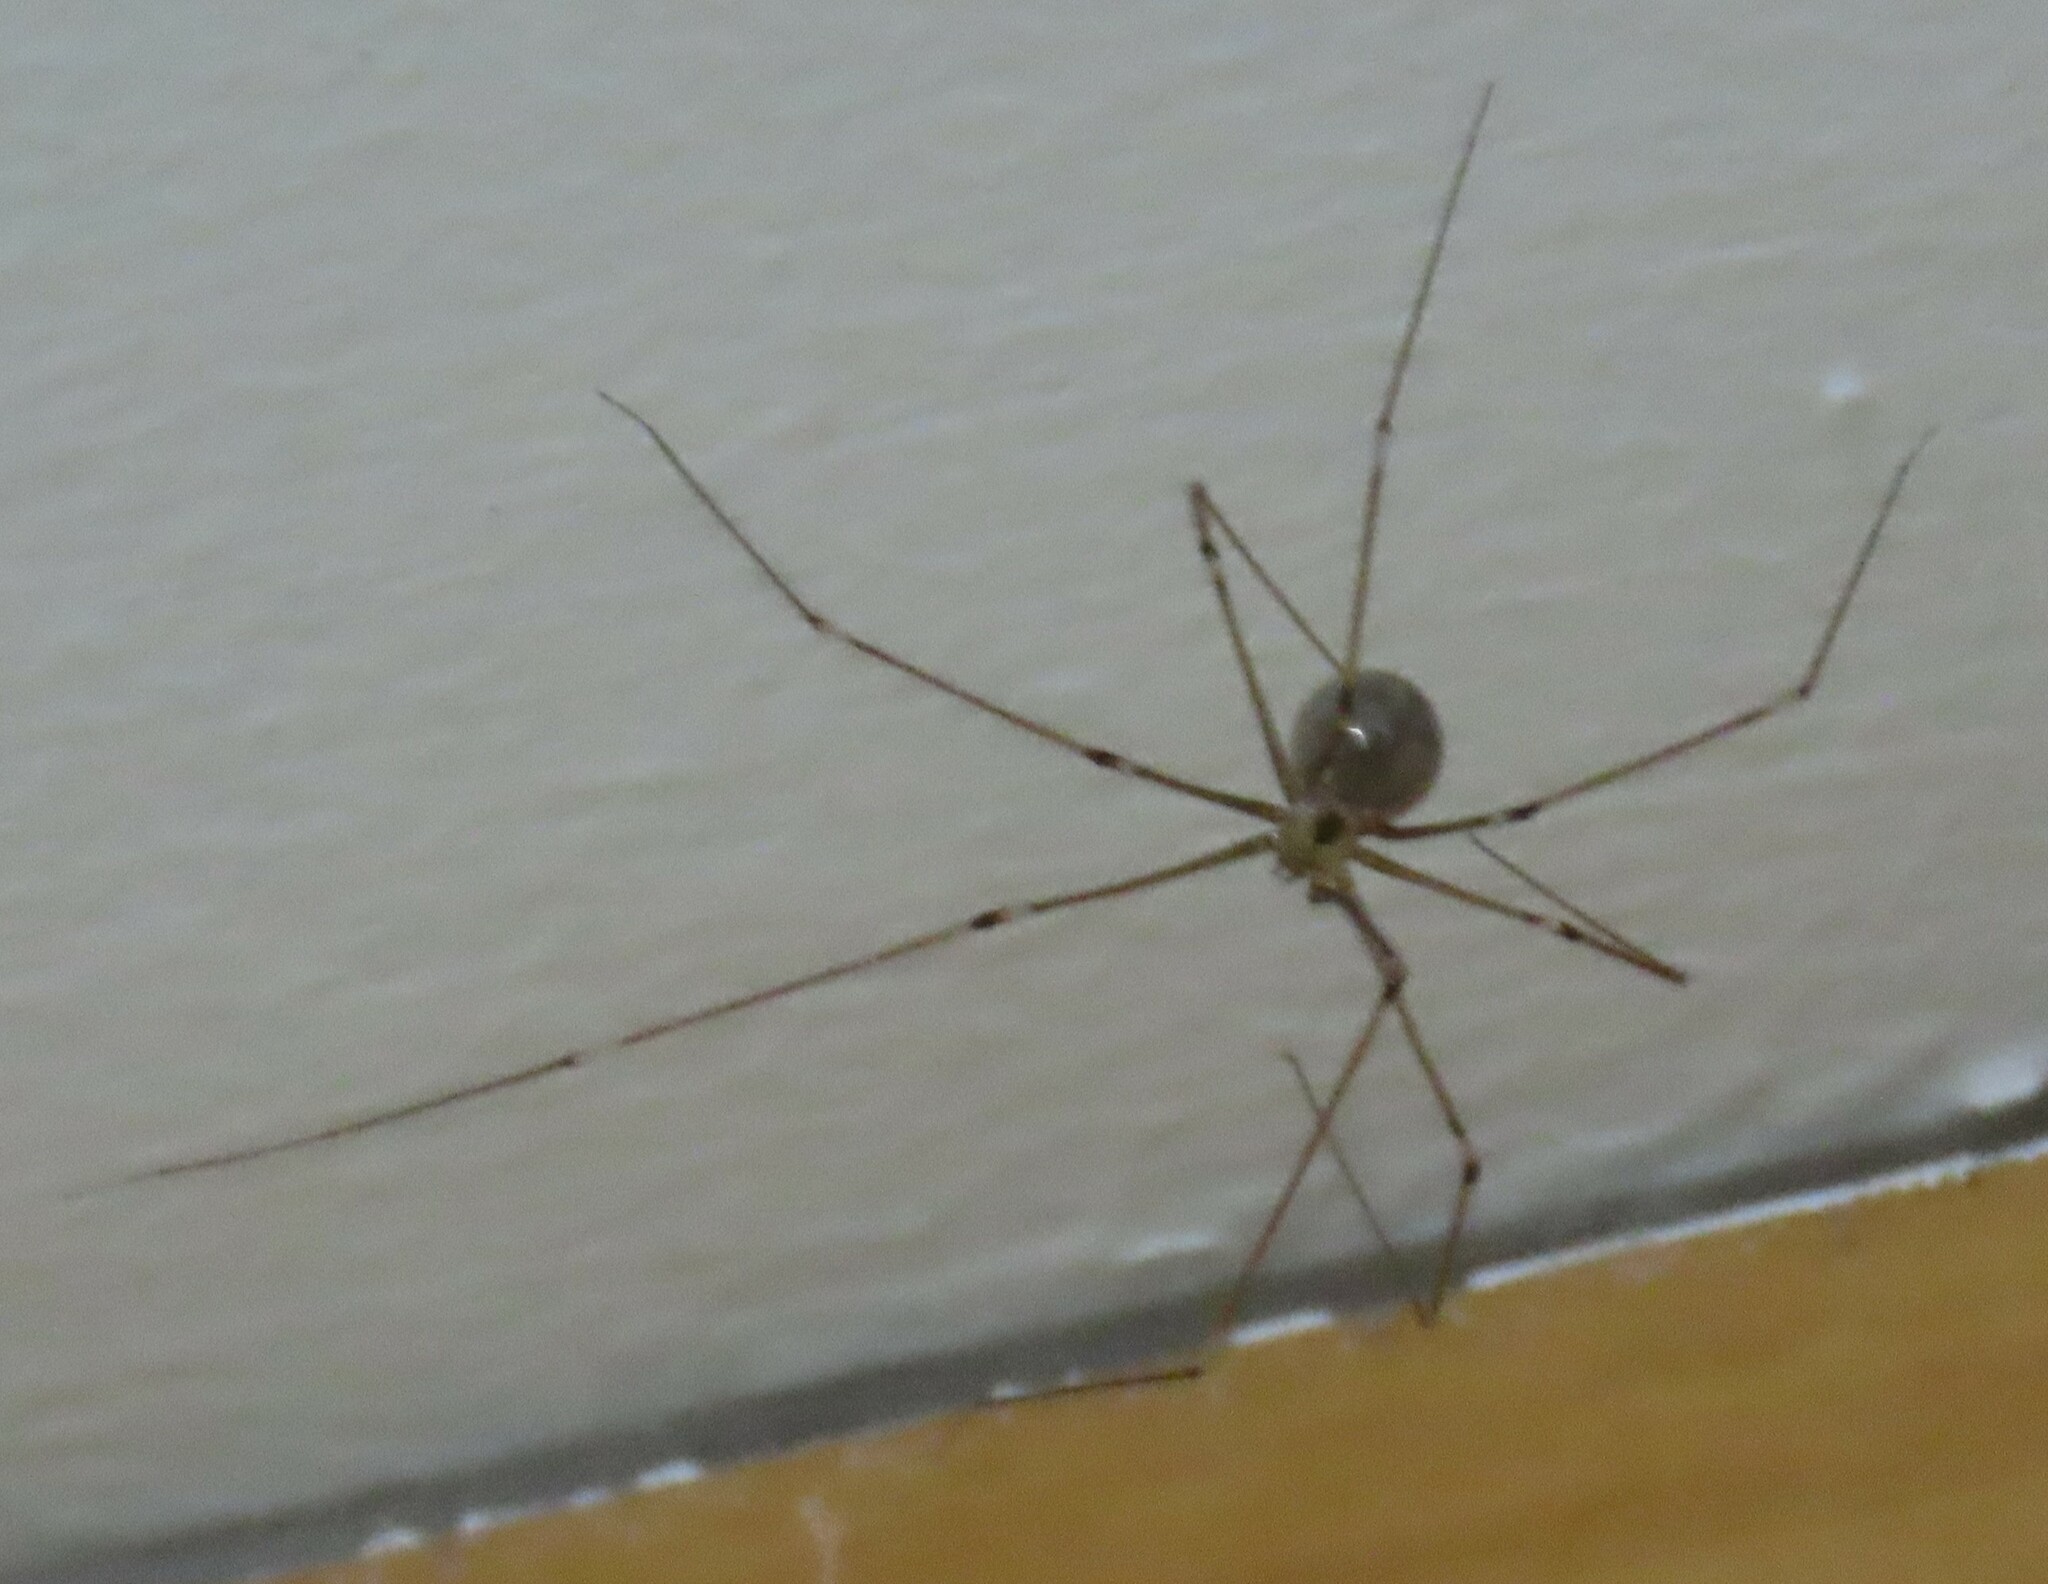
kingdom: Animalia
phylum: Arthropoda
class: Arachnida
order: Araneae
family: Pholcidae
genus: Pholcus
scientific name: Pholcus phalangioides
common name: Longbodied cellar spider
